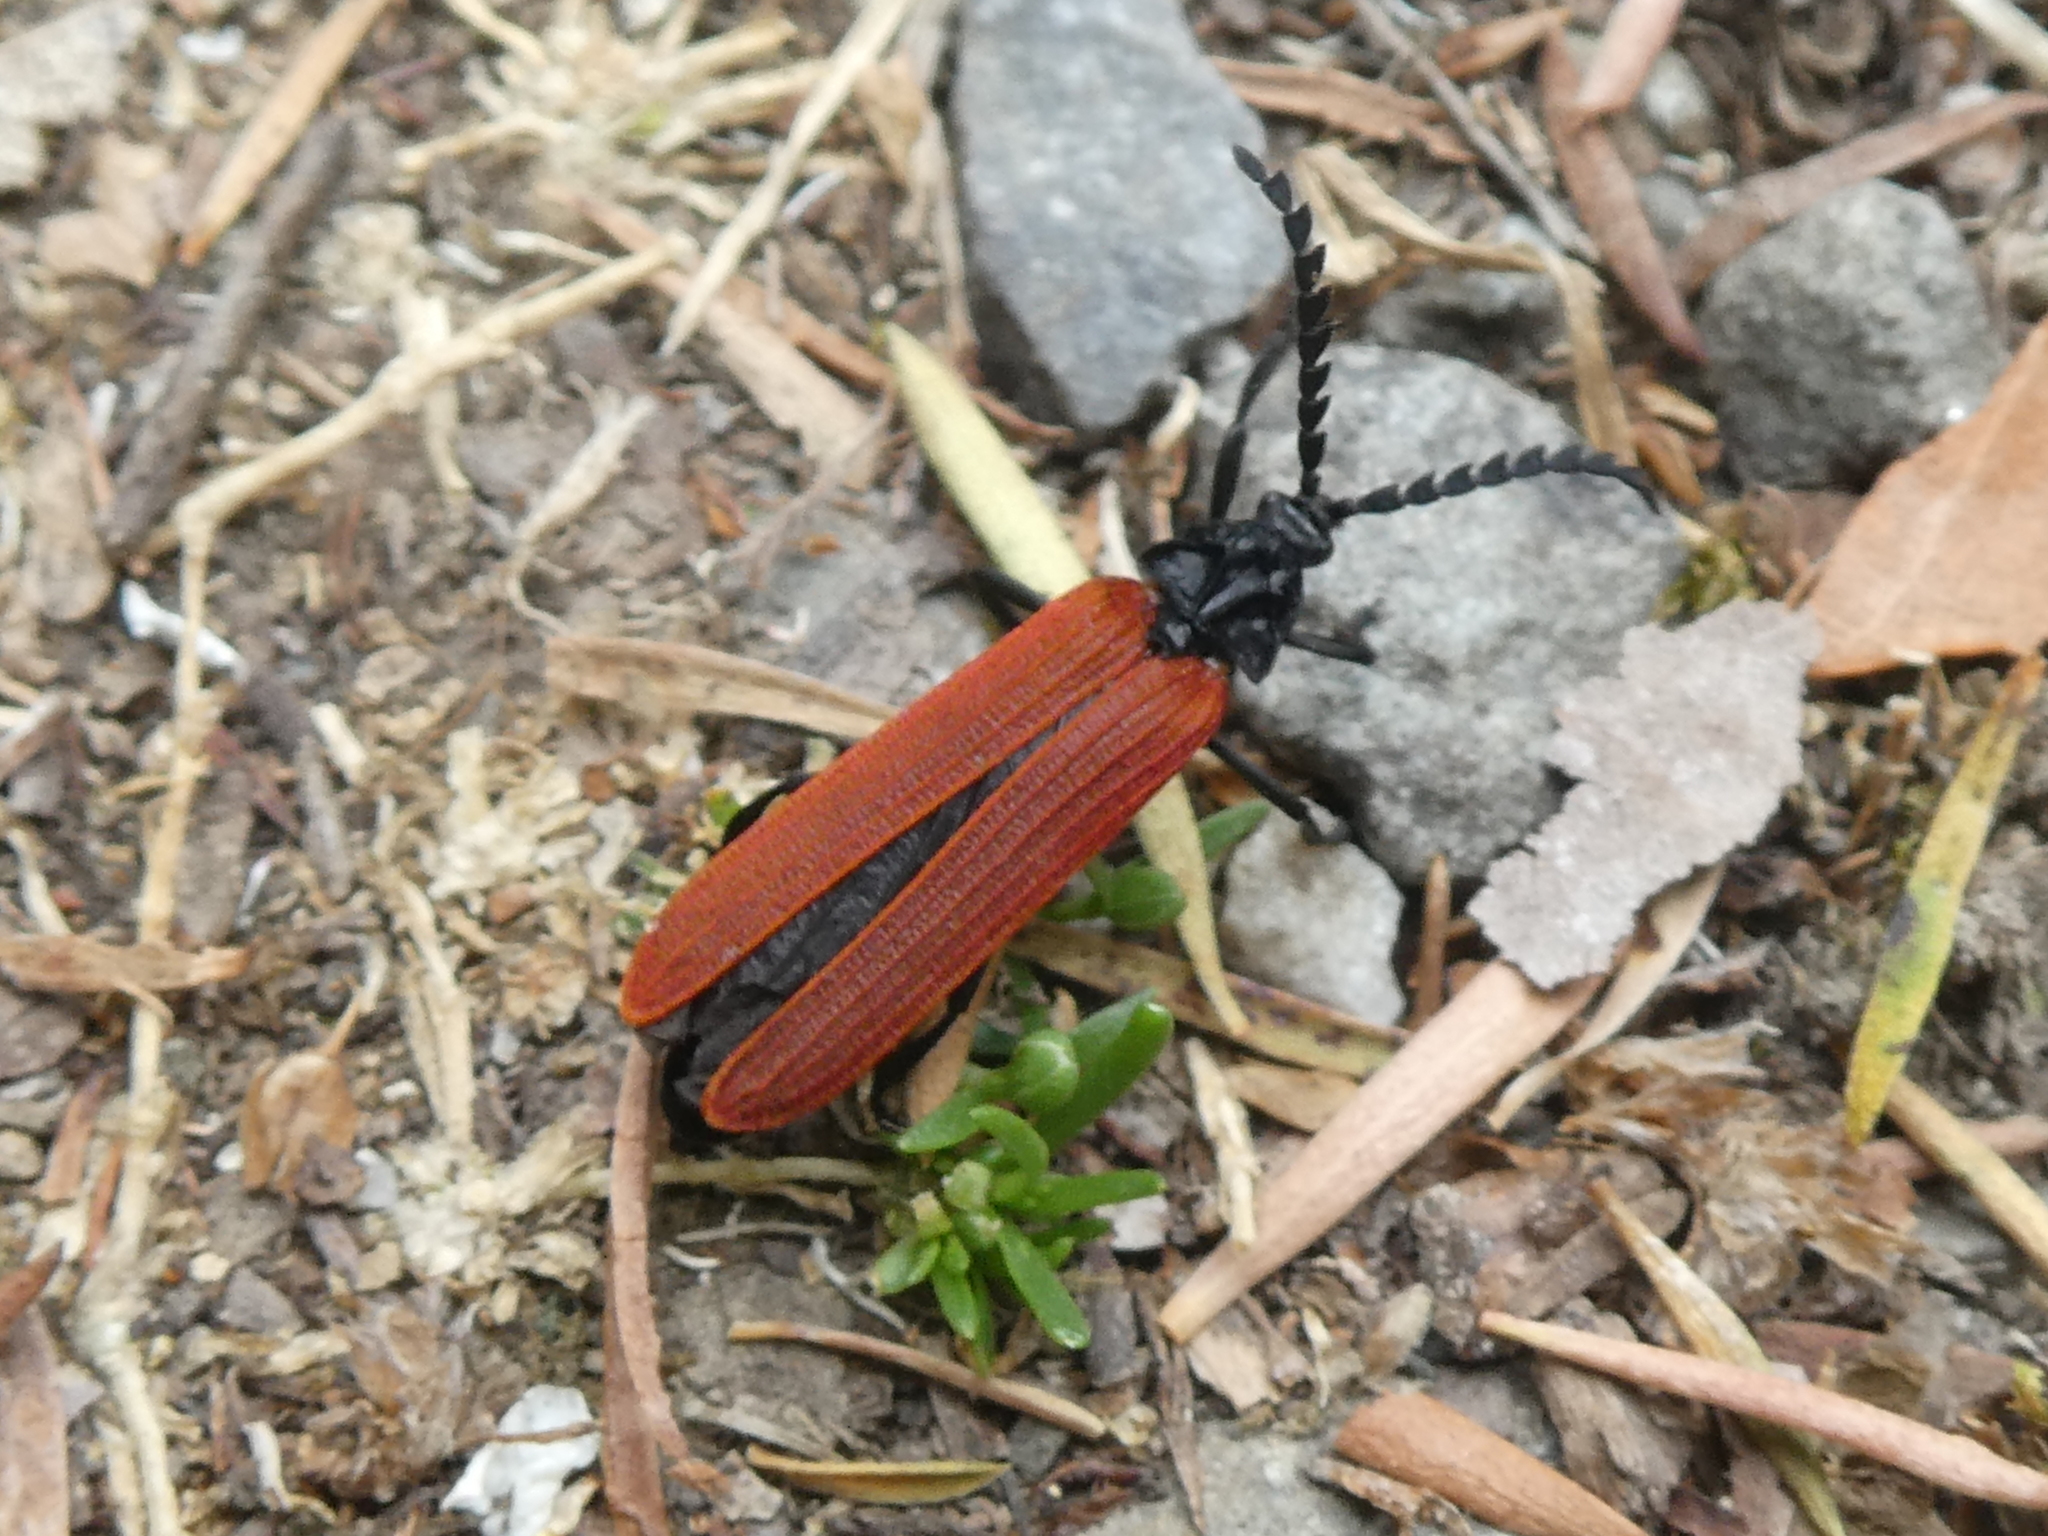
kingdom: Animalia
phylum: Arthropoda
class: Insecta
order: Coleoptera
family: Lycidae
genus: Porrostoma
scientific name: Porrostoma rufipenne
